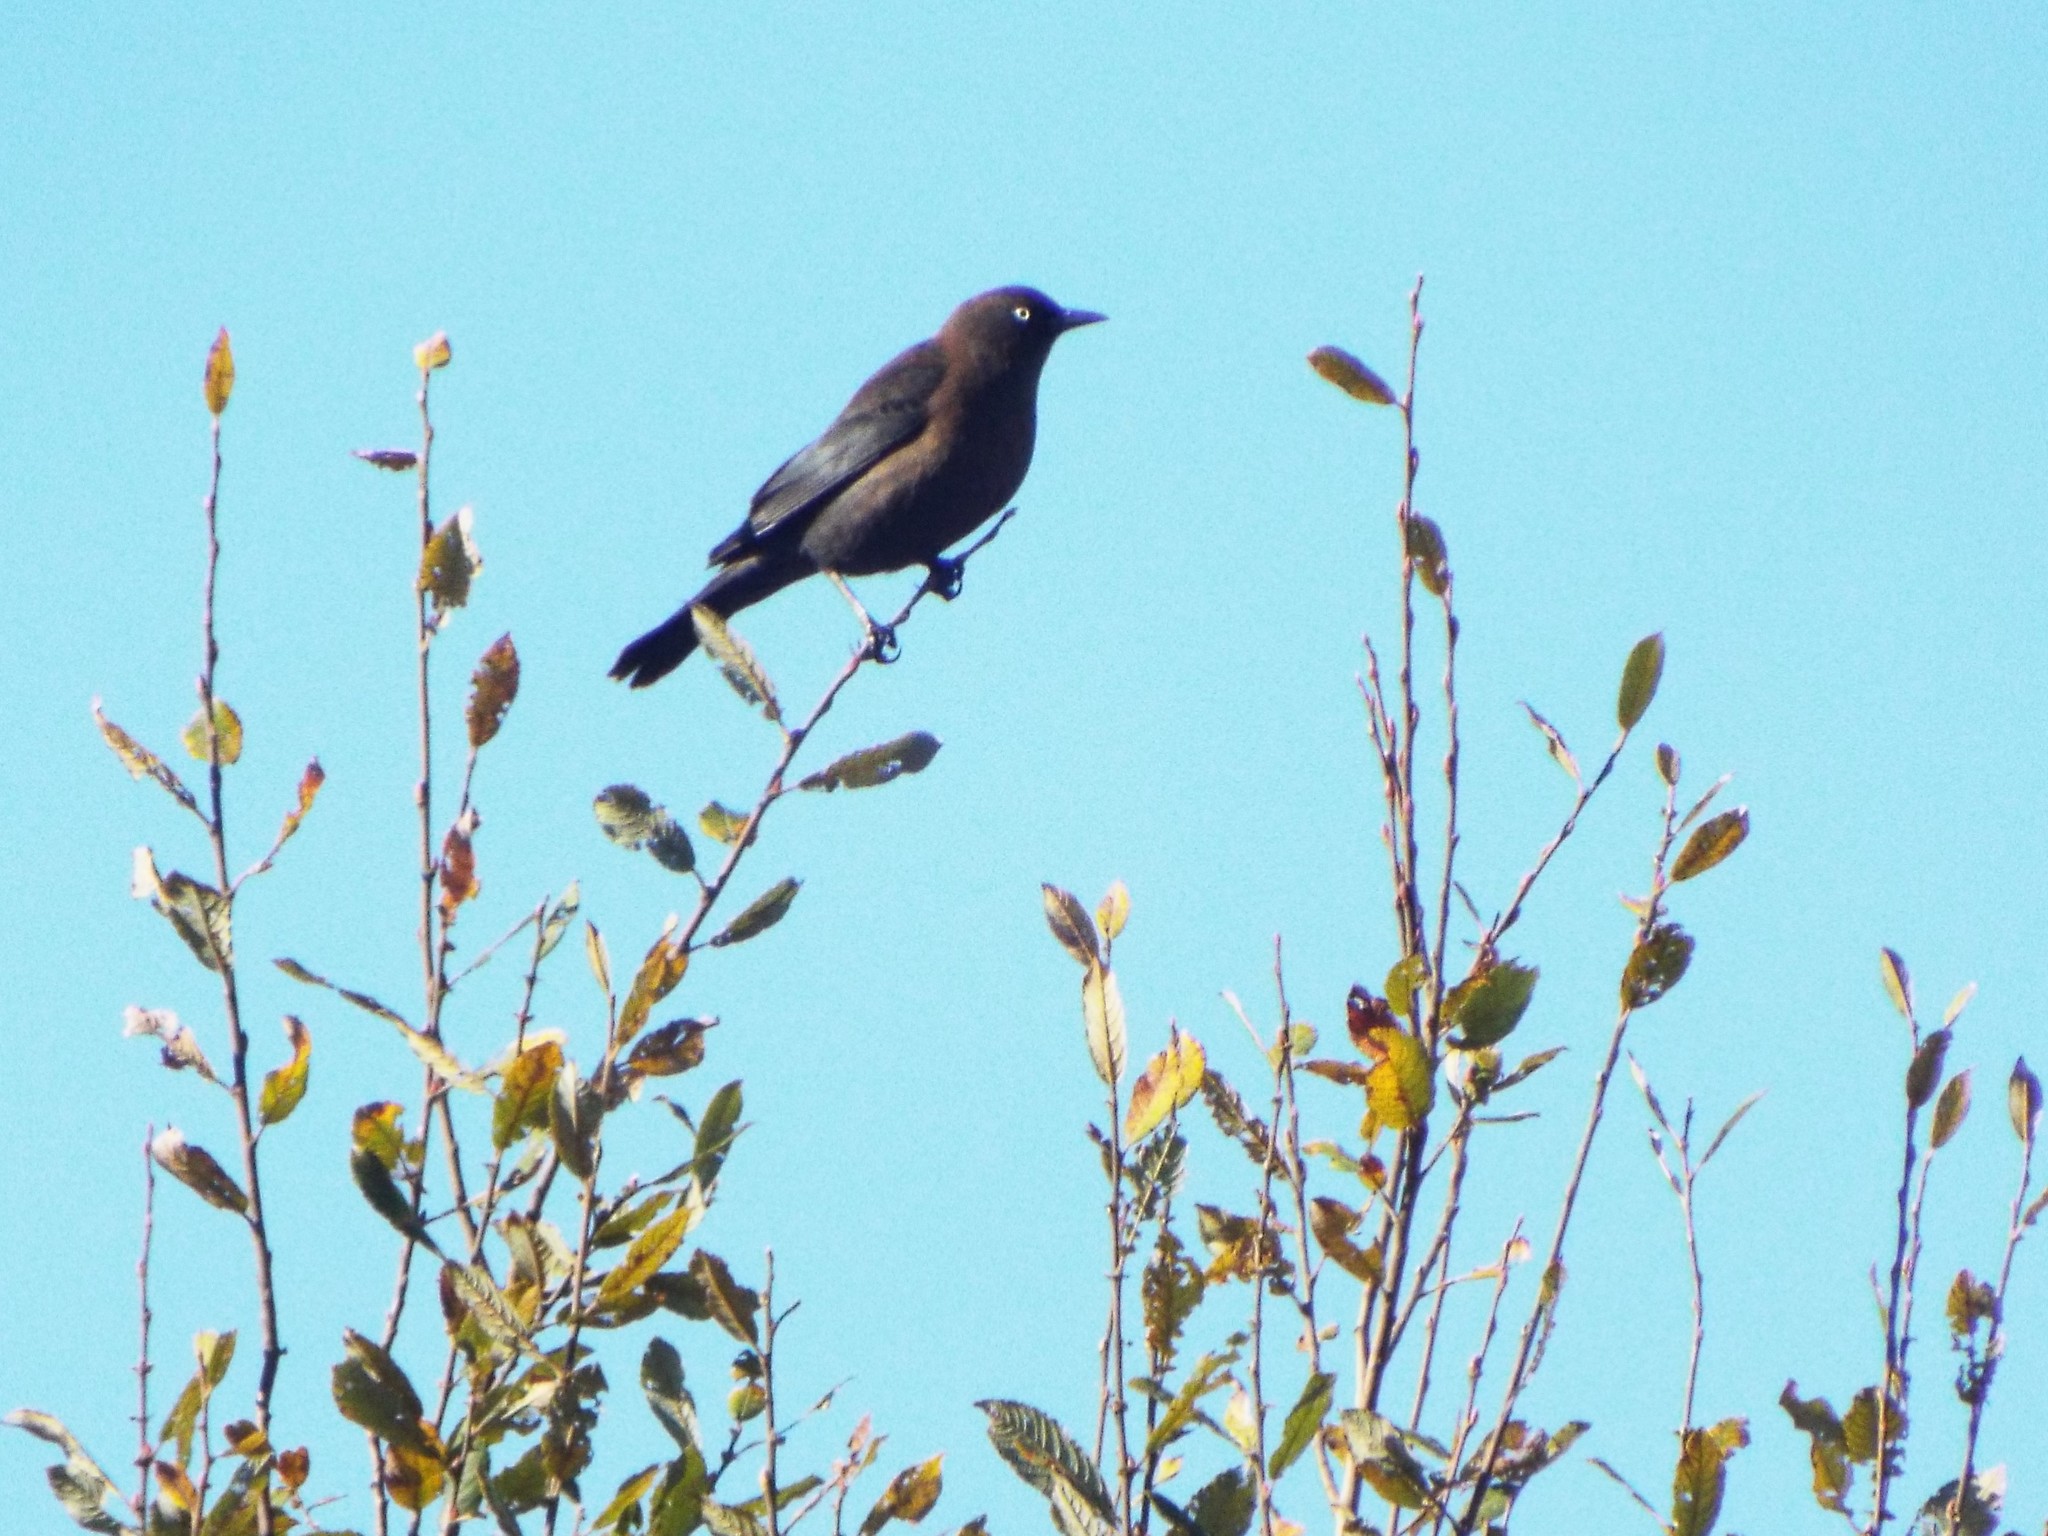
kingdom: Animalia
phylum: Chordata
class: Aves
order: Passeriformes
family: Icteridae
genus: Euphagus
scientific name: Euphagus carolinus
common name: Rusty blackbird
